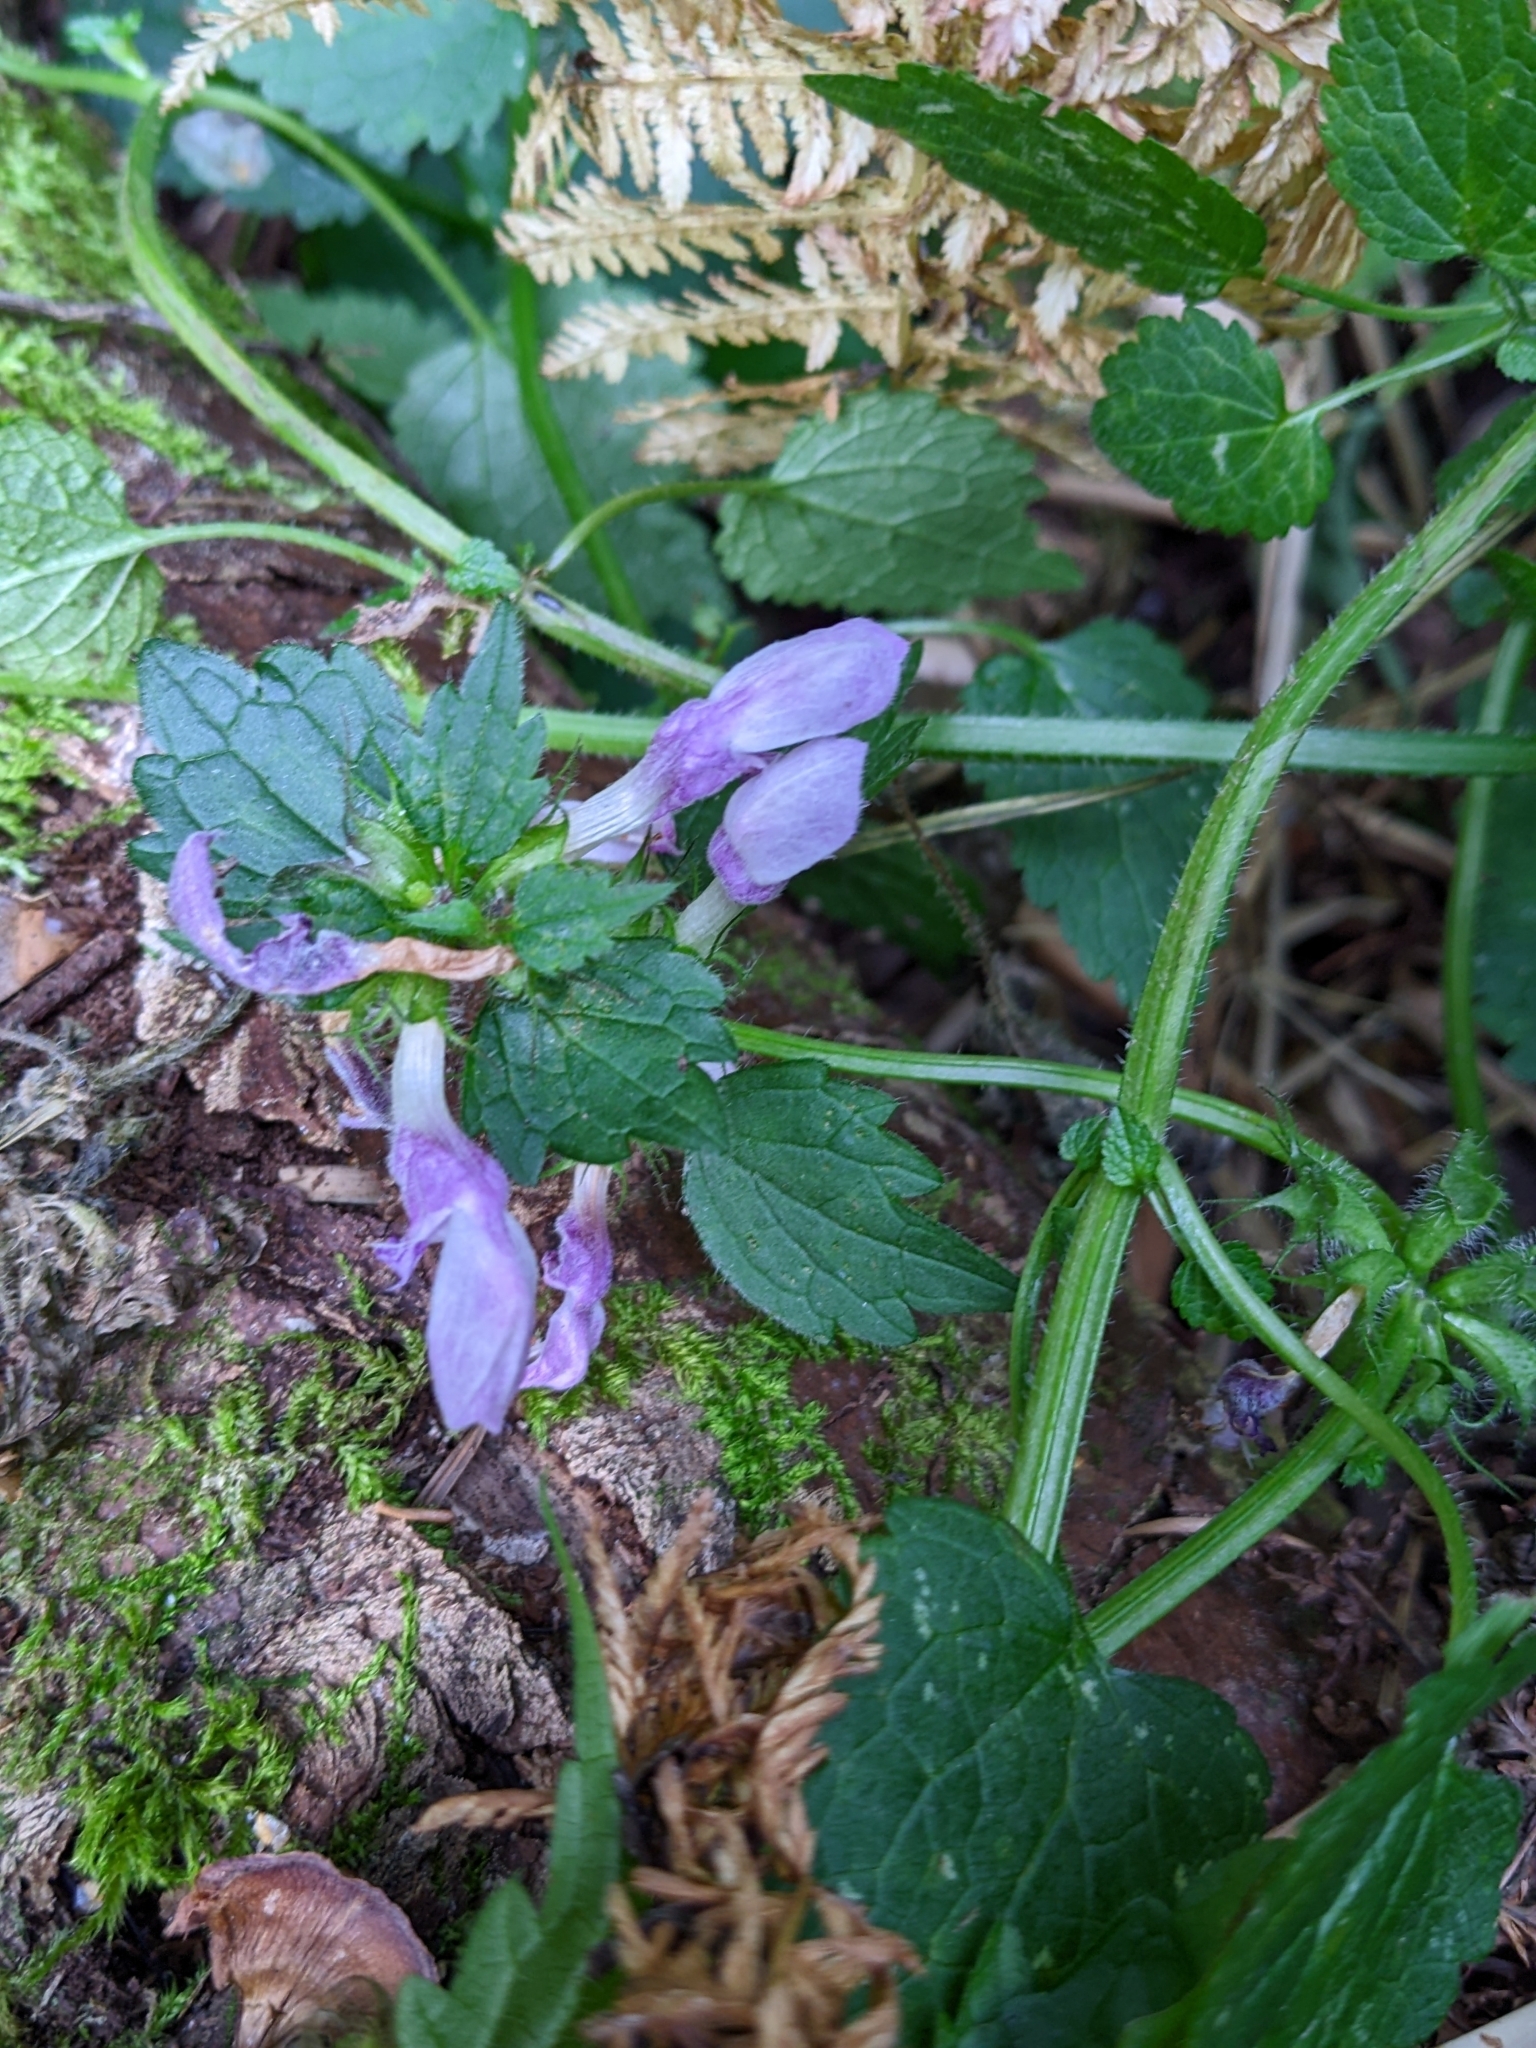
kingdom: Plantae
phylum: Tracheophyta
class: Magnoliopsida
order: Lamiales
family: Lamiaceae
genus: Lamium
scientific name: Lamium maculatum
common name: Spotted dead-nettle
